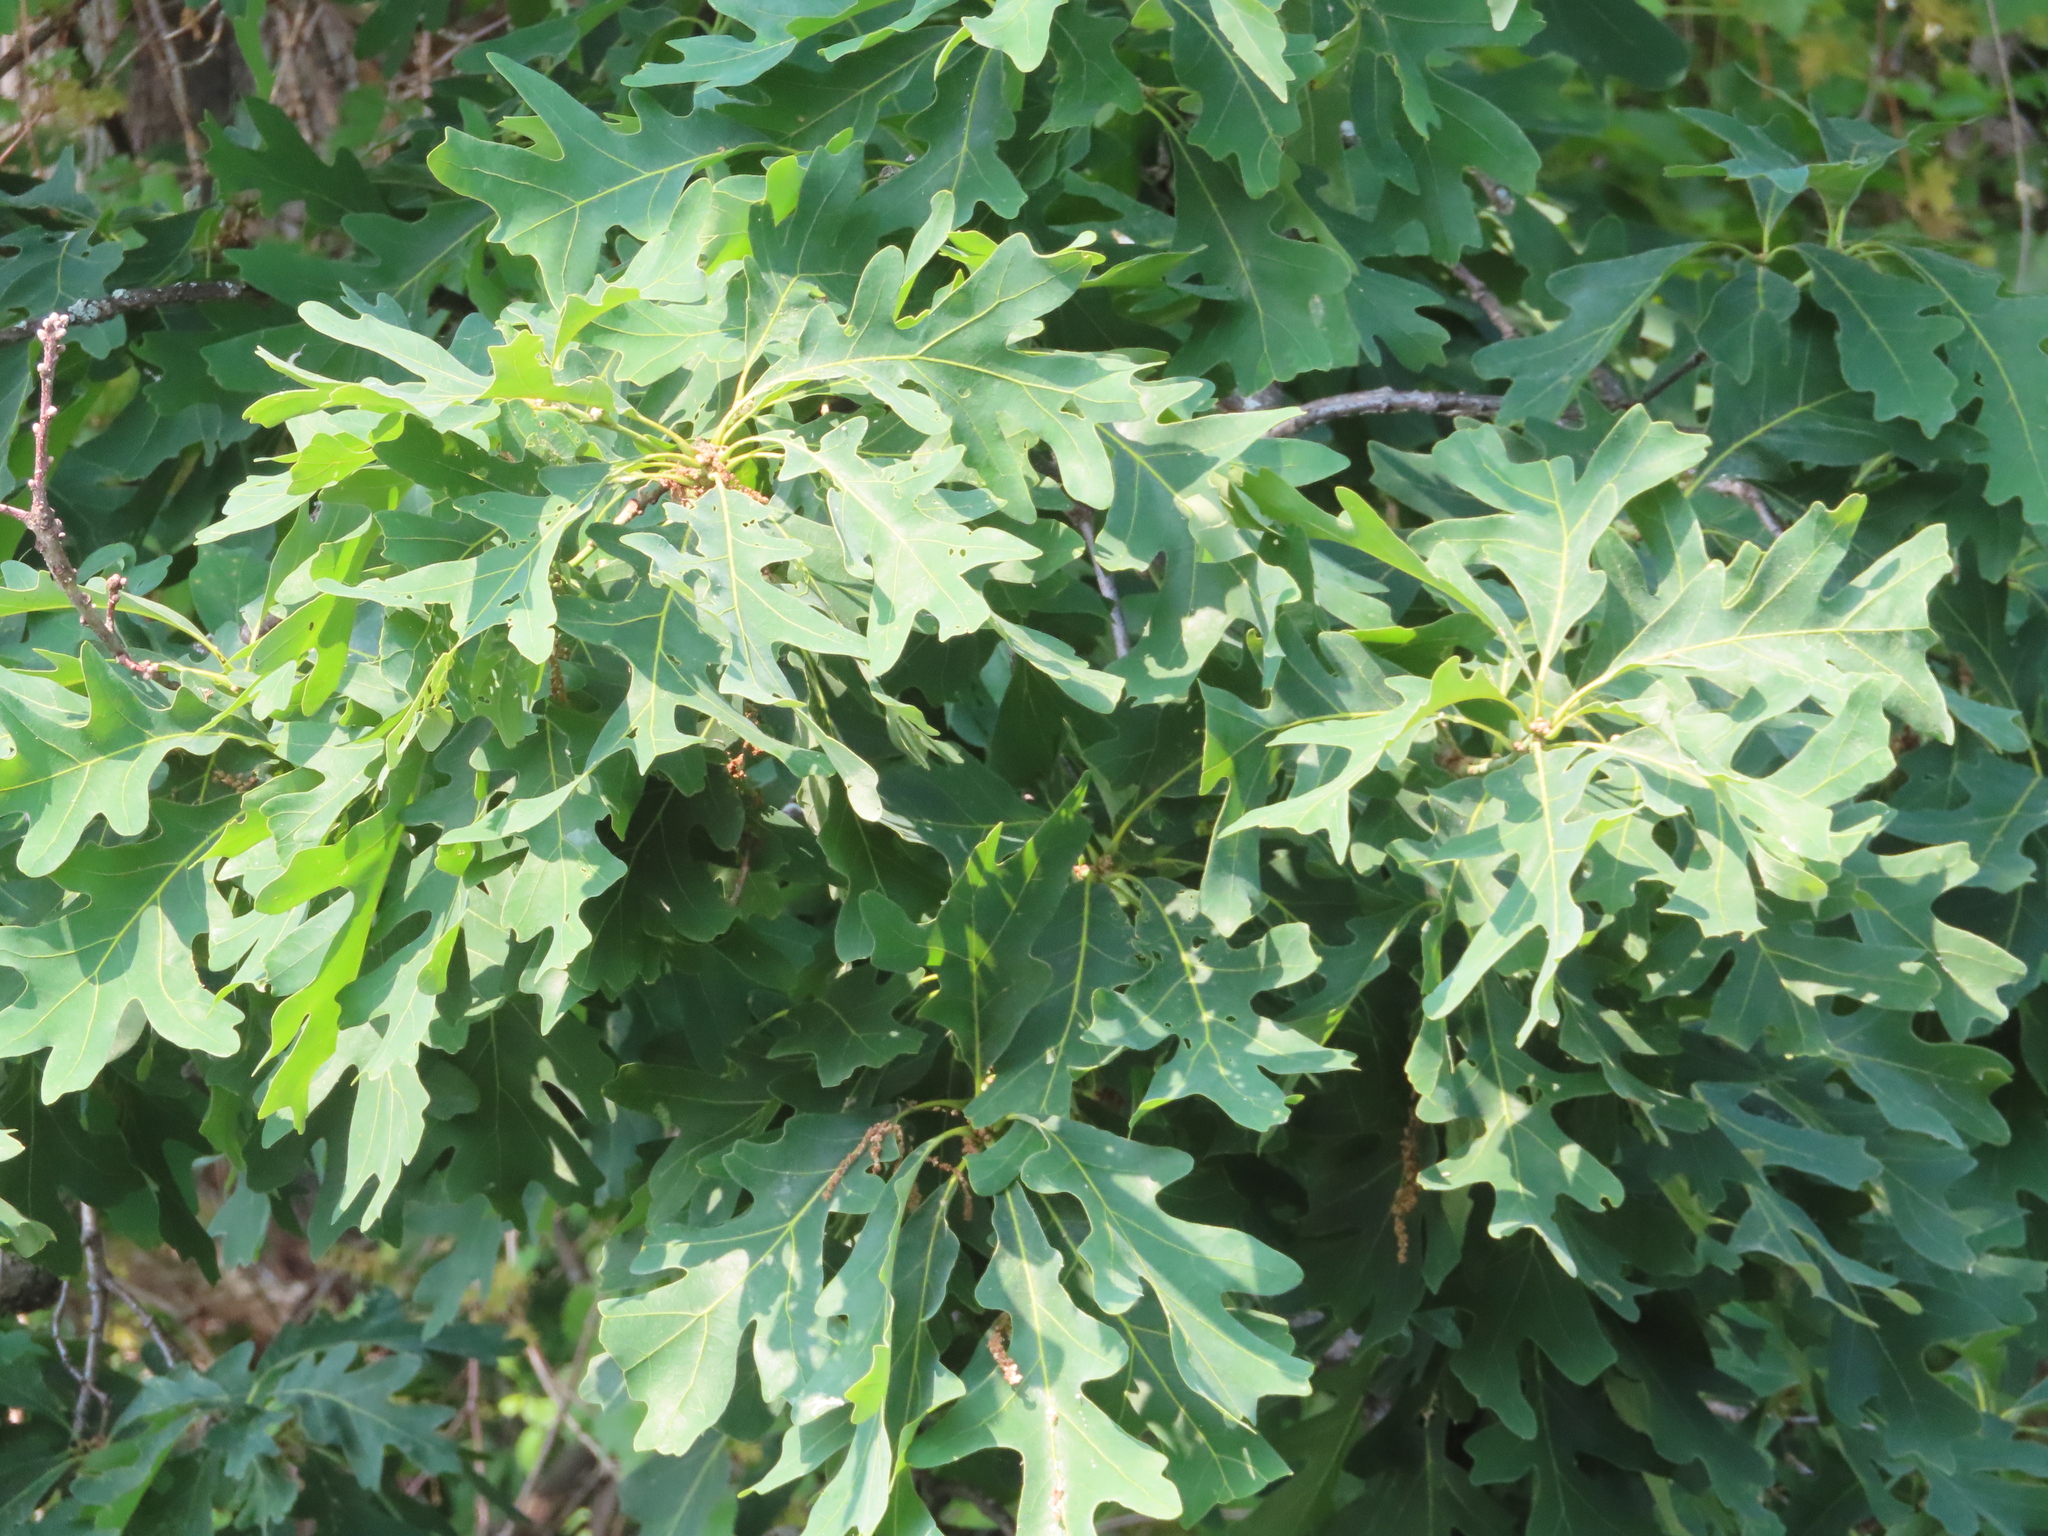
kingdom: Plantae
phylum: Tracheophyta
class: Magnoliopsida
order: Fagales
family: Fagaceae
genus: Quercus
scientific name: Quercus alba
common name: White oak
